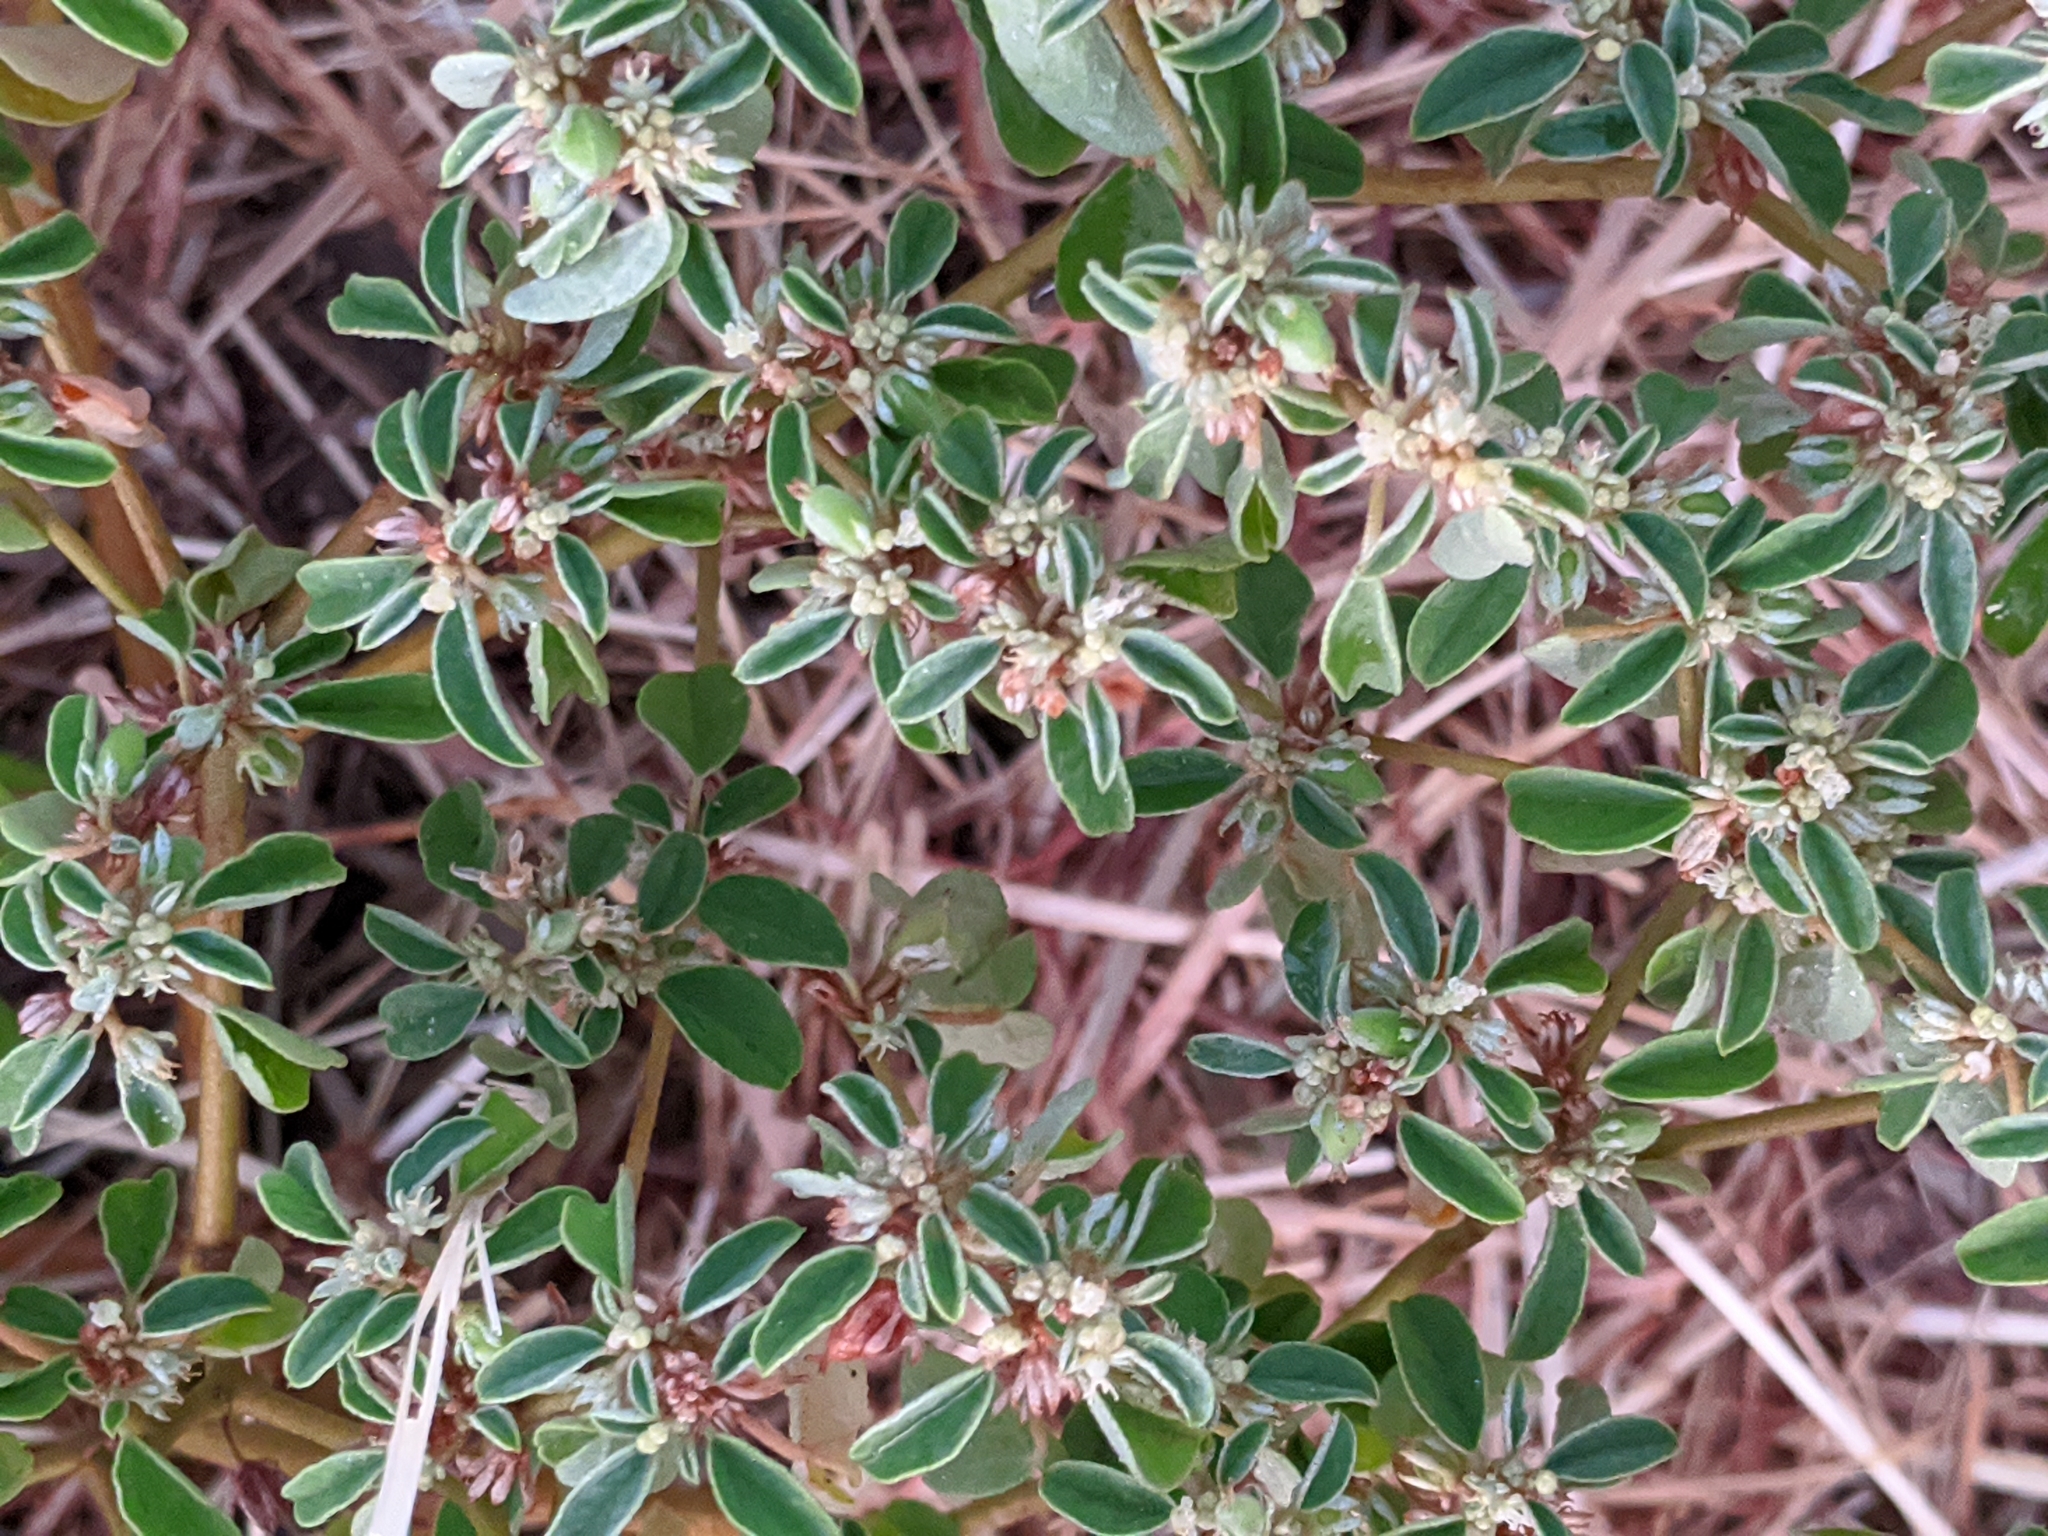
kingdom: Plantae
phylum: Tracheophyta
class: Magnoliopsida
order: Malpighiales
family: Euphorbiaceae
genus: Croton
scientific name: Croton monanthogynus
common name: One-seed croton
